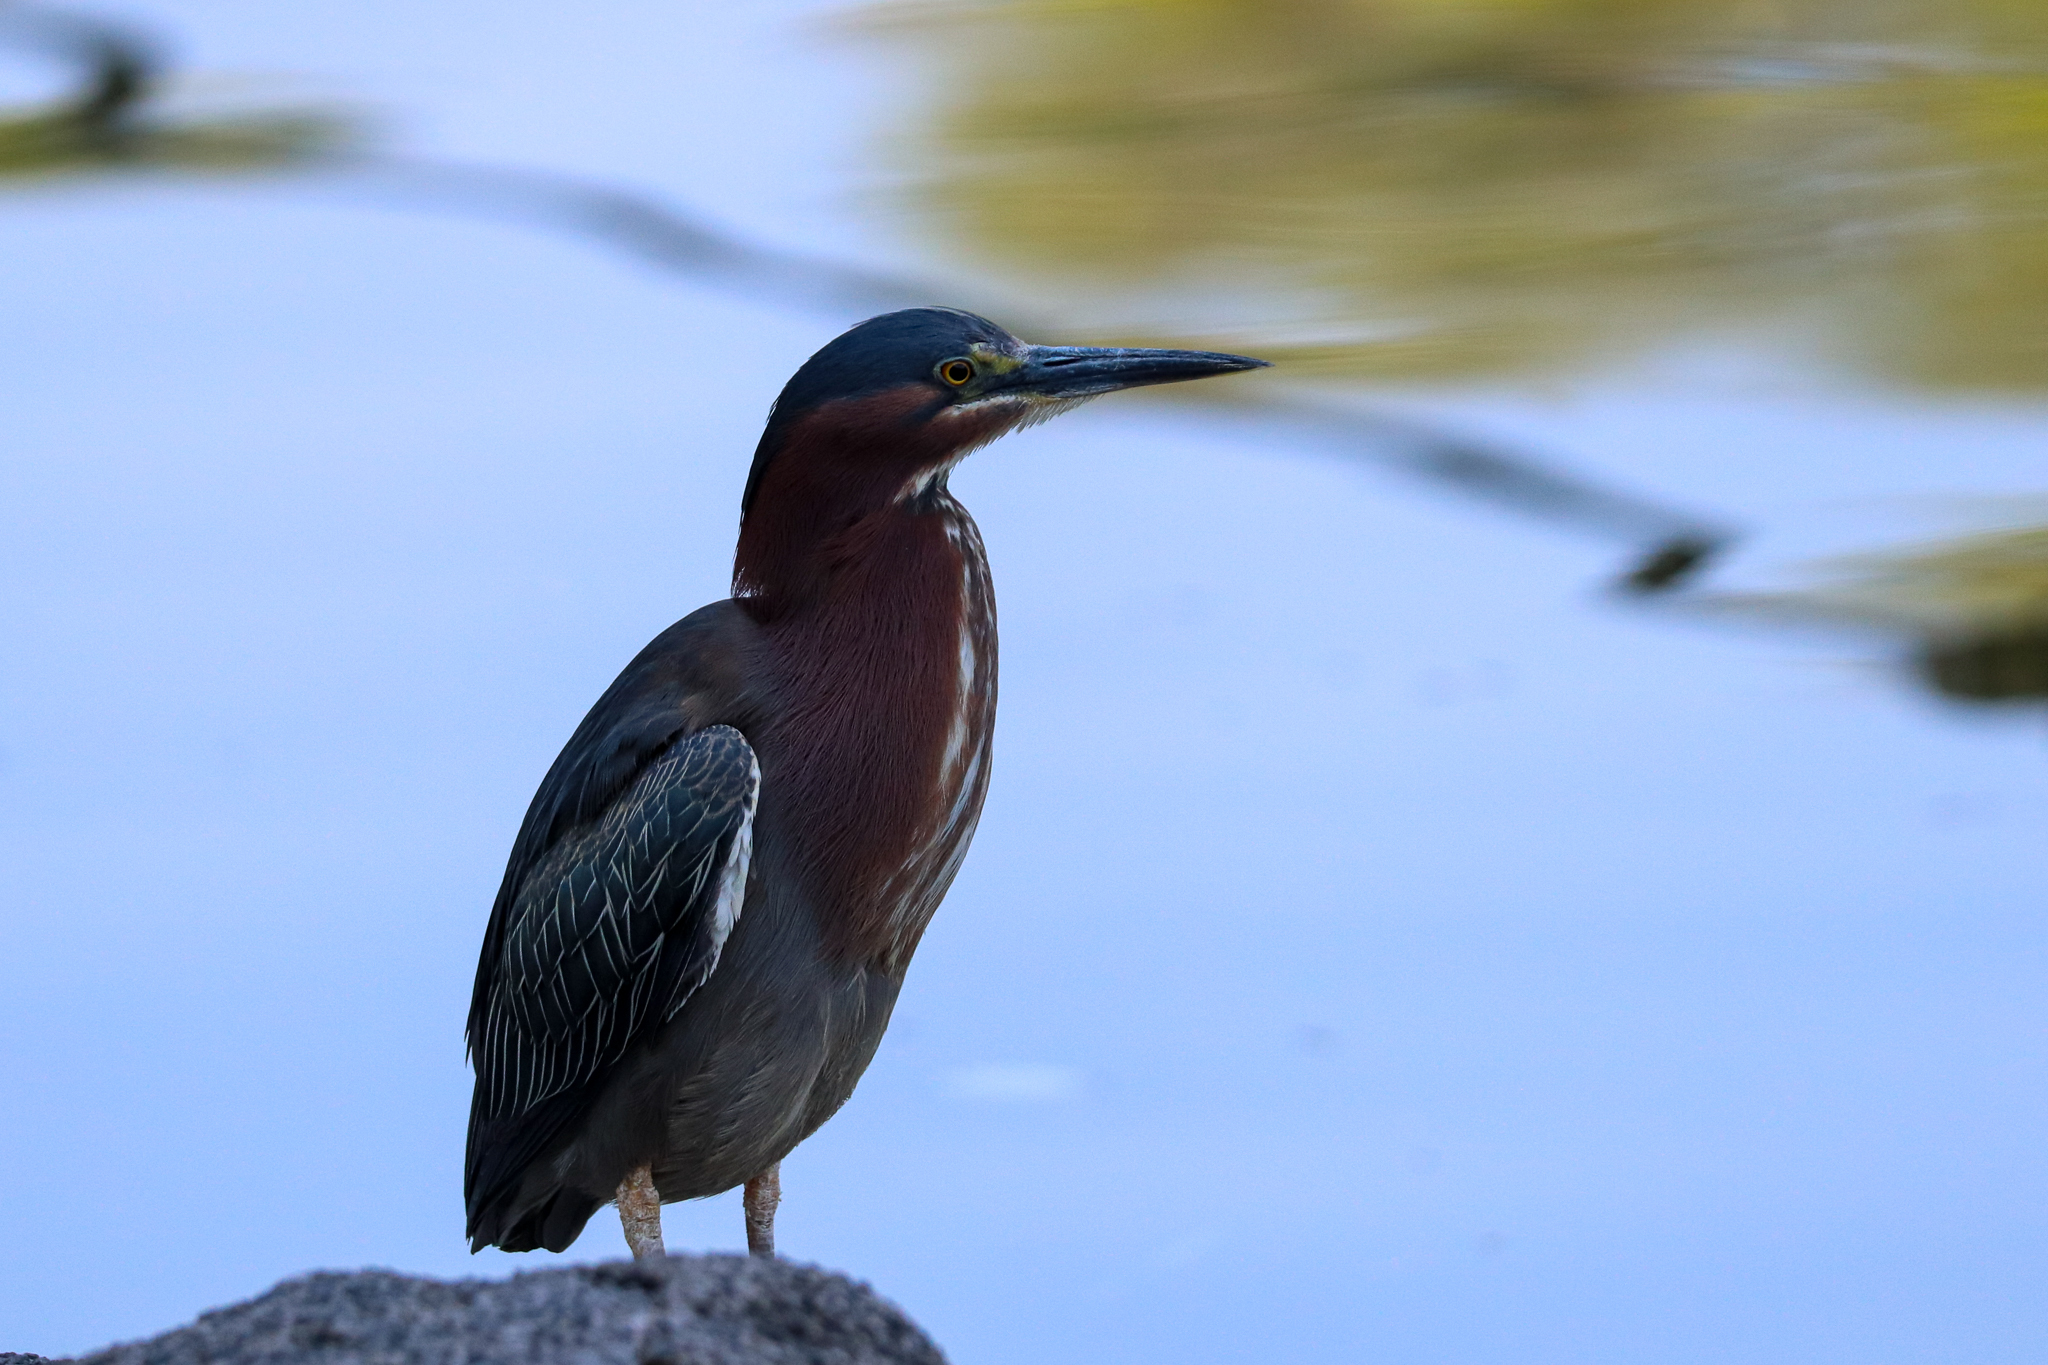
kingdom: Animalia
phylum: Chordata
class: Aves
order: Pelecaniformes
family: Ardeidae
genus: Butorides
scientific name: Butorides virescens
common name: Green heron
